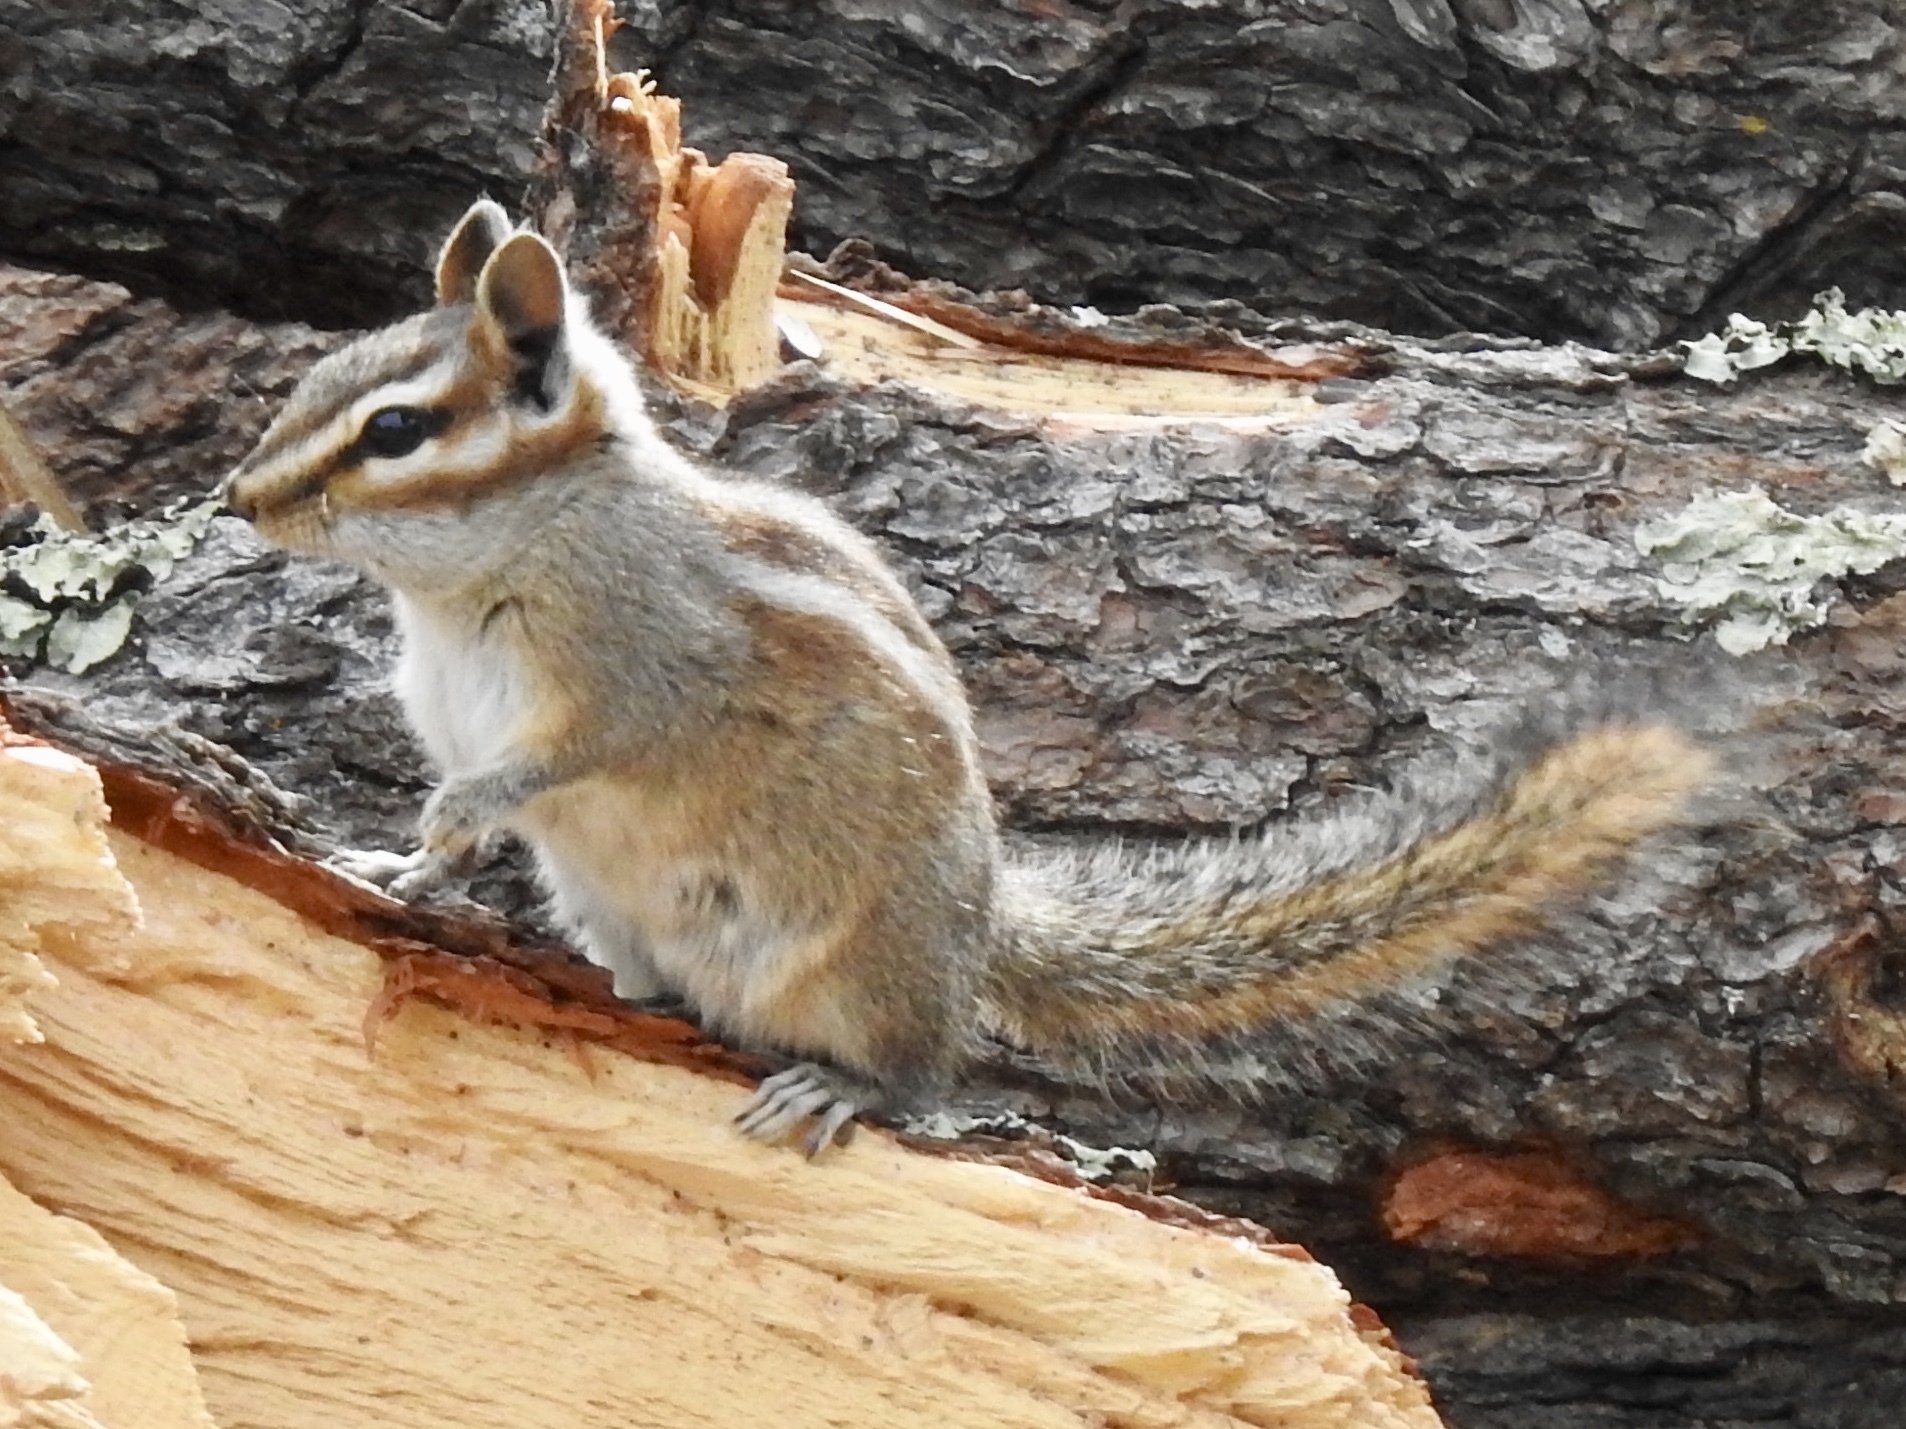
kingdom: Animalia
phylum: Chordata
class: Mammalia
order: Rodentia
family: Sciuridae
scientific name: Sciuridae
